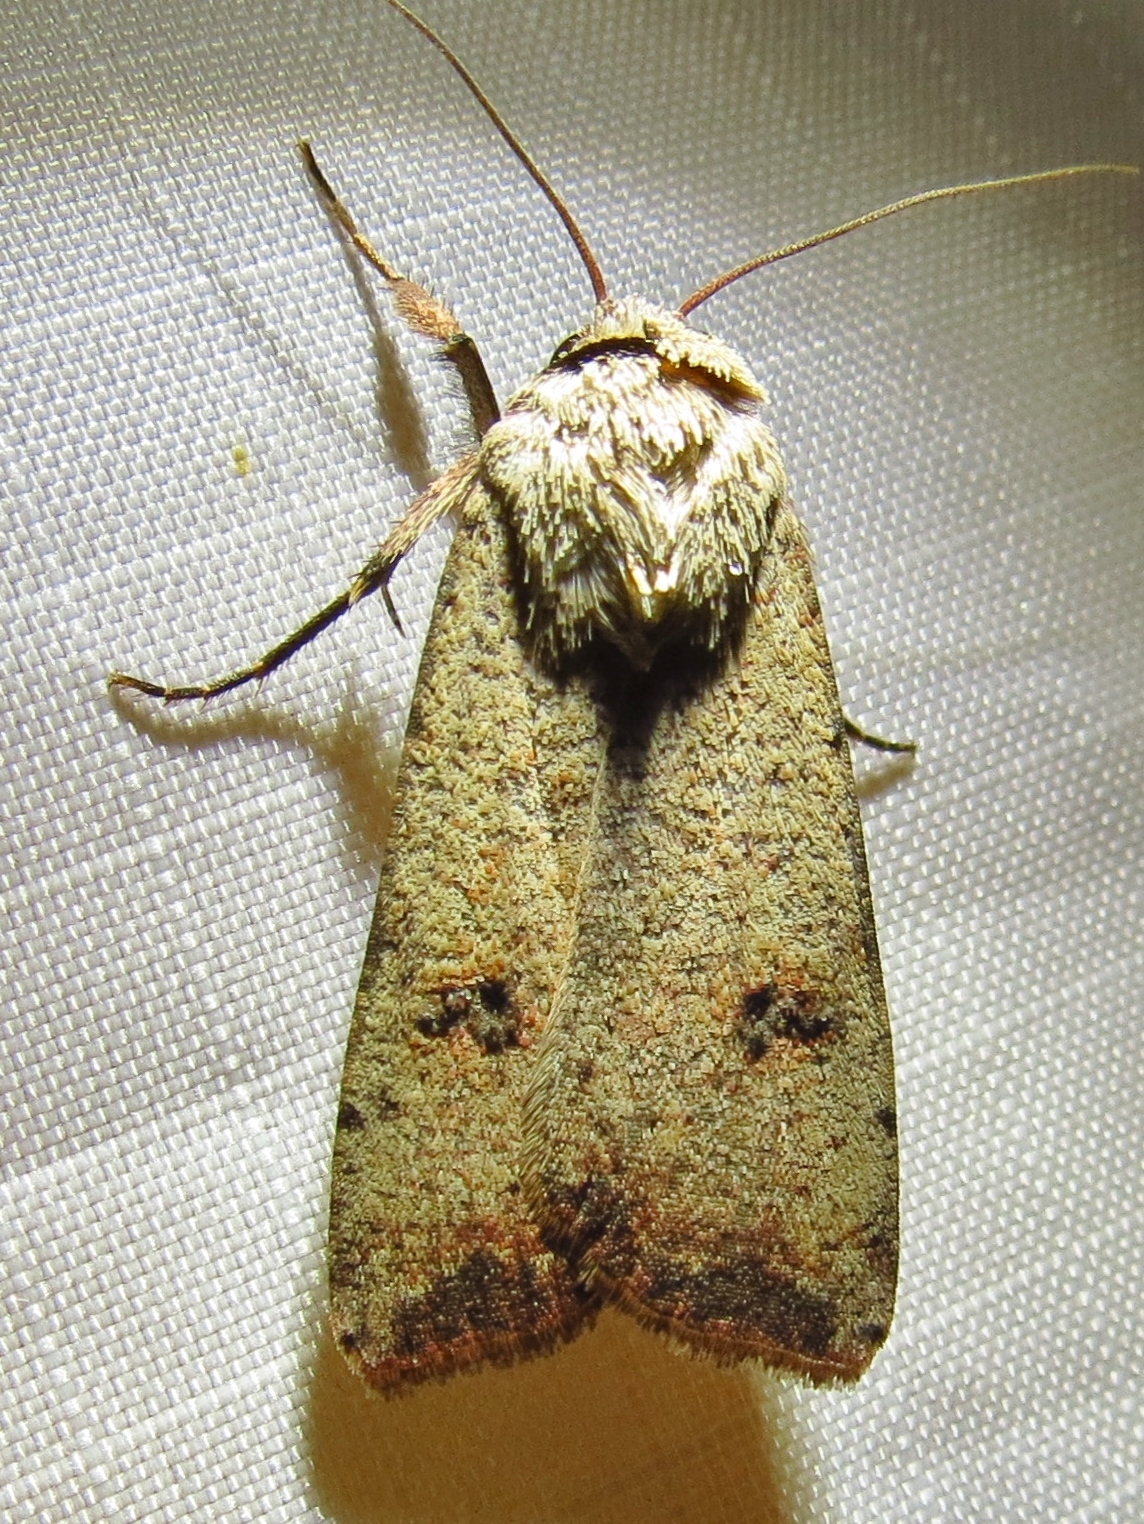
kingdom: Animalia
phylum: Arthropoda
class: Insecta
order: Lepidoptera
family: Noctuidae
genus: Anicla
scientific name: Anicla infecta
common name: Green cutworm
